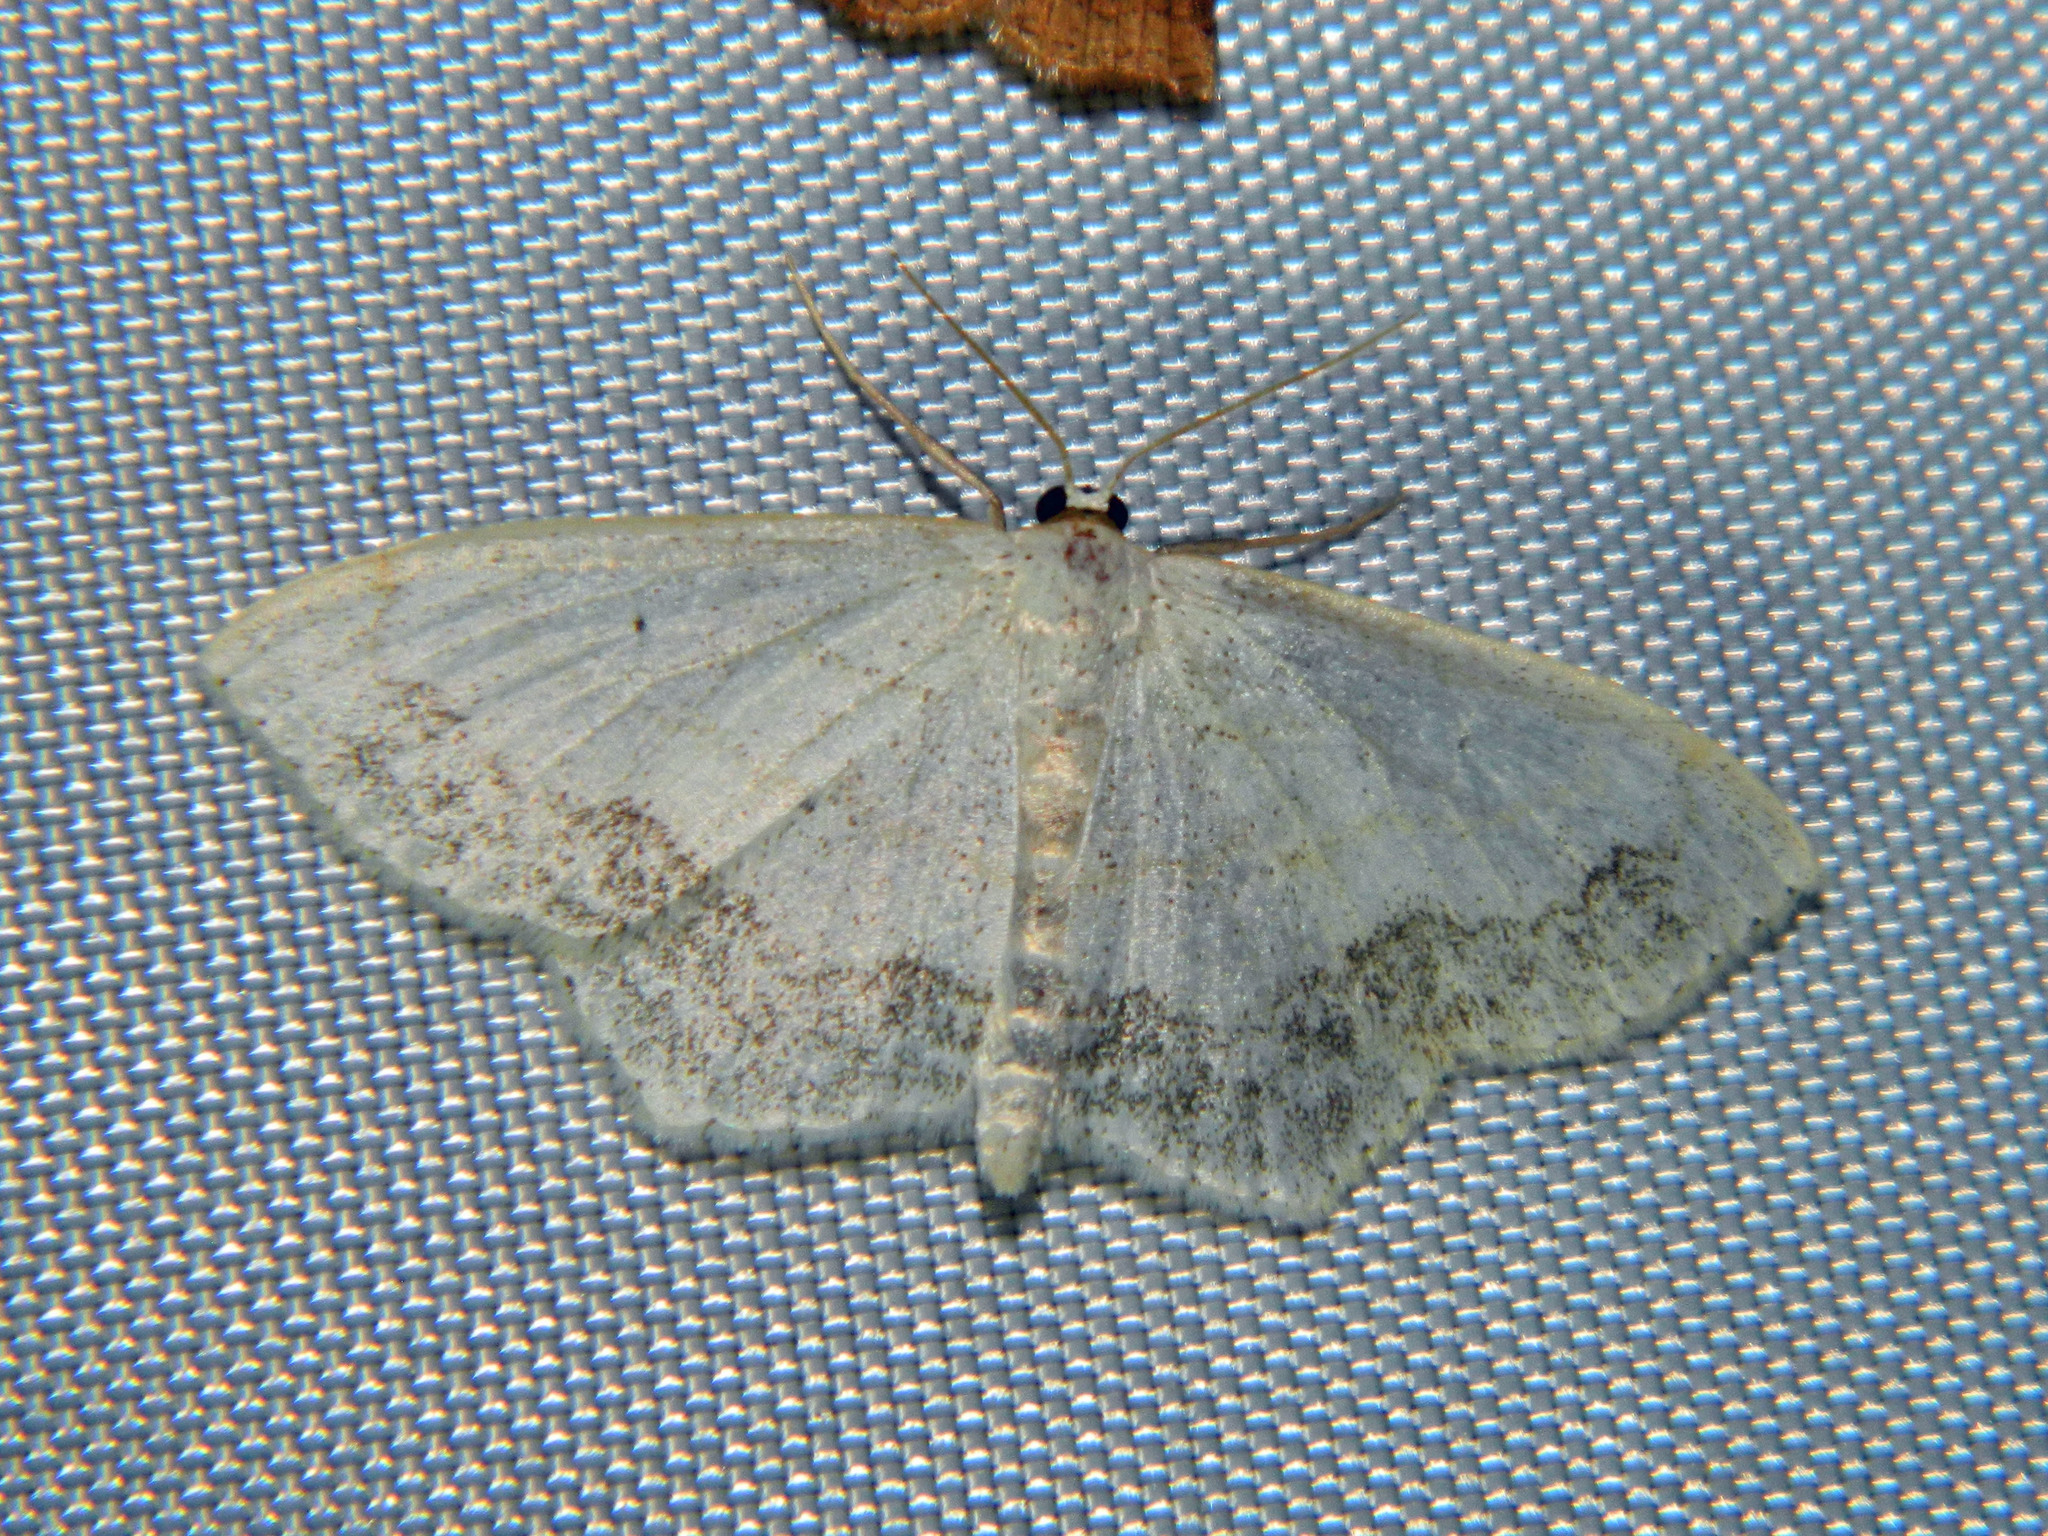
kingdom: Animalia
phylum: Arthropoda
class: Insecta
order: Lepidoptera
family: Geometridae
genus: Scopula
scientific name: Scopula limboundata
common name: Large lace border
